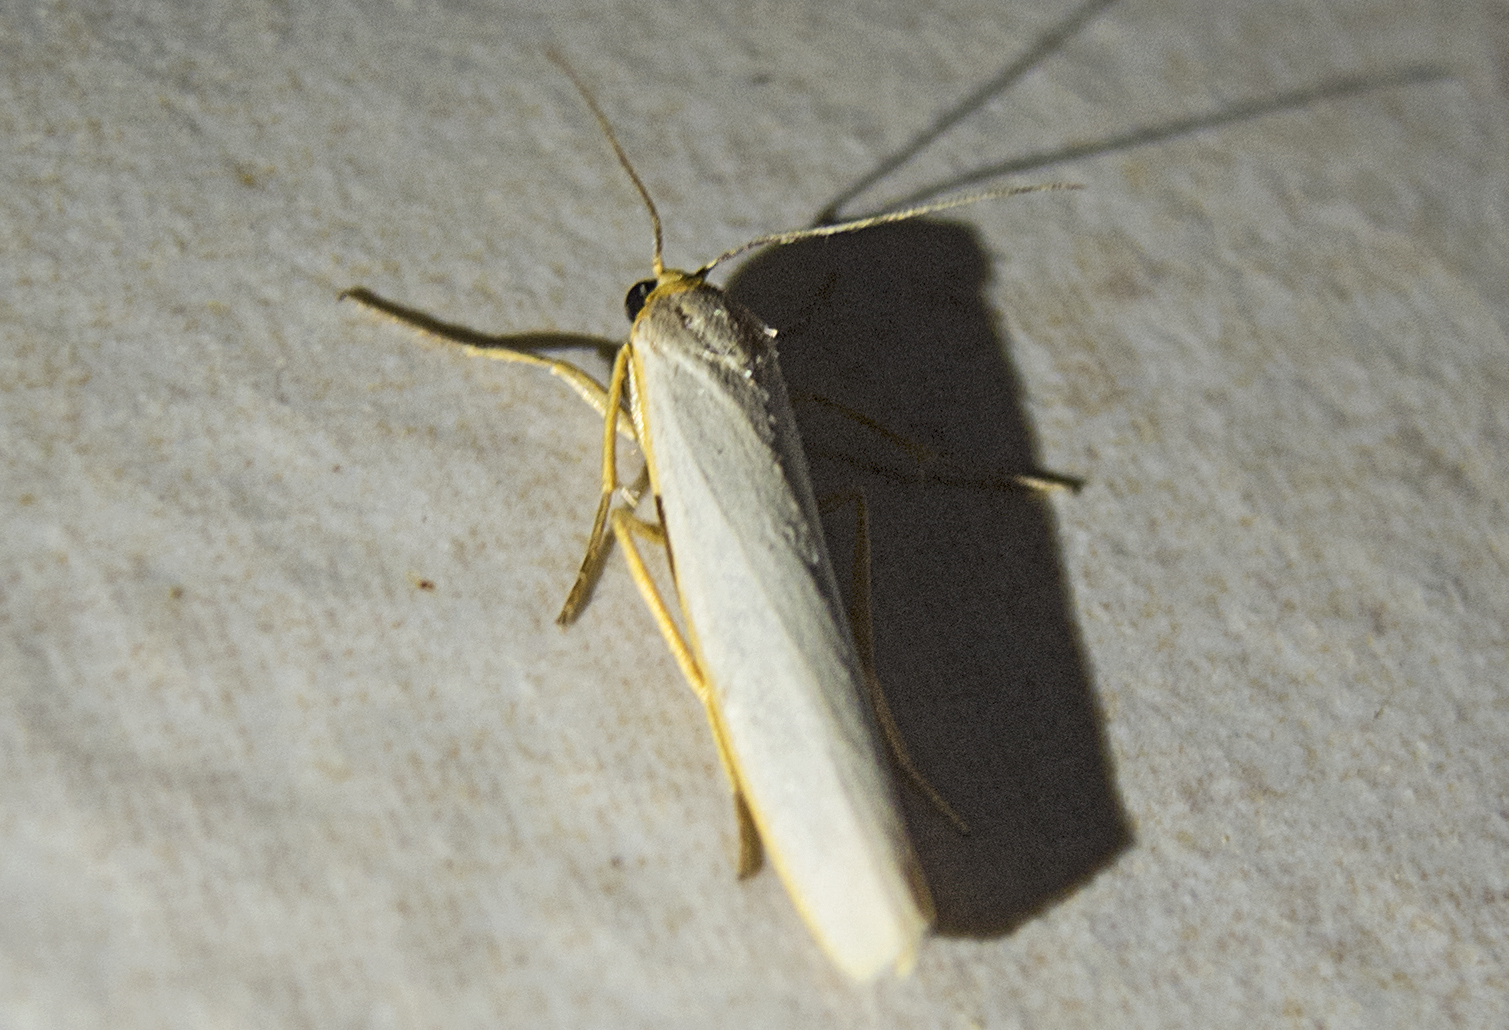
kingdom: Animalia
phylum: Arthropoda
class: Insecta
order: Lepidoptera
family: Erebidae
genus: Eilema
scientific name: Eilema caniola
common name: Hoary footman
